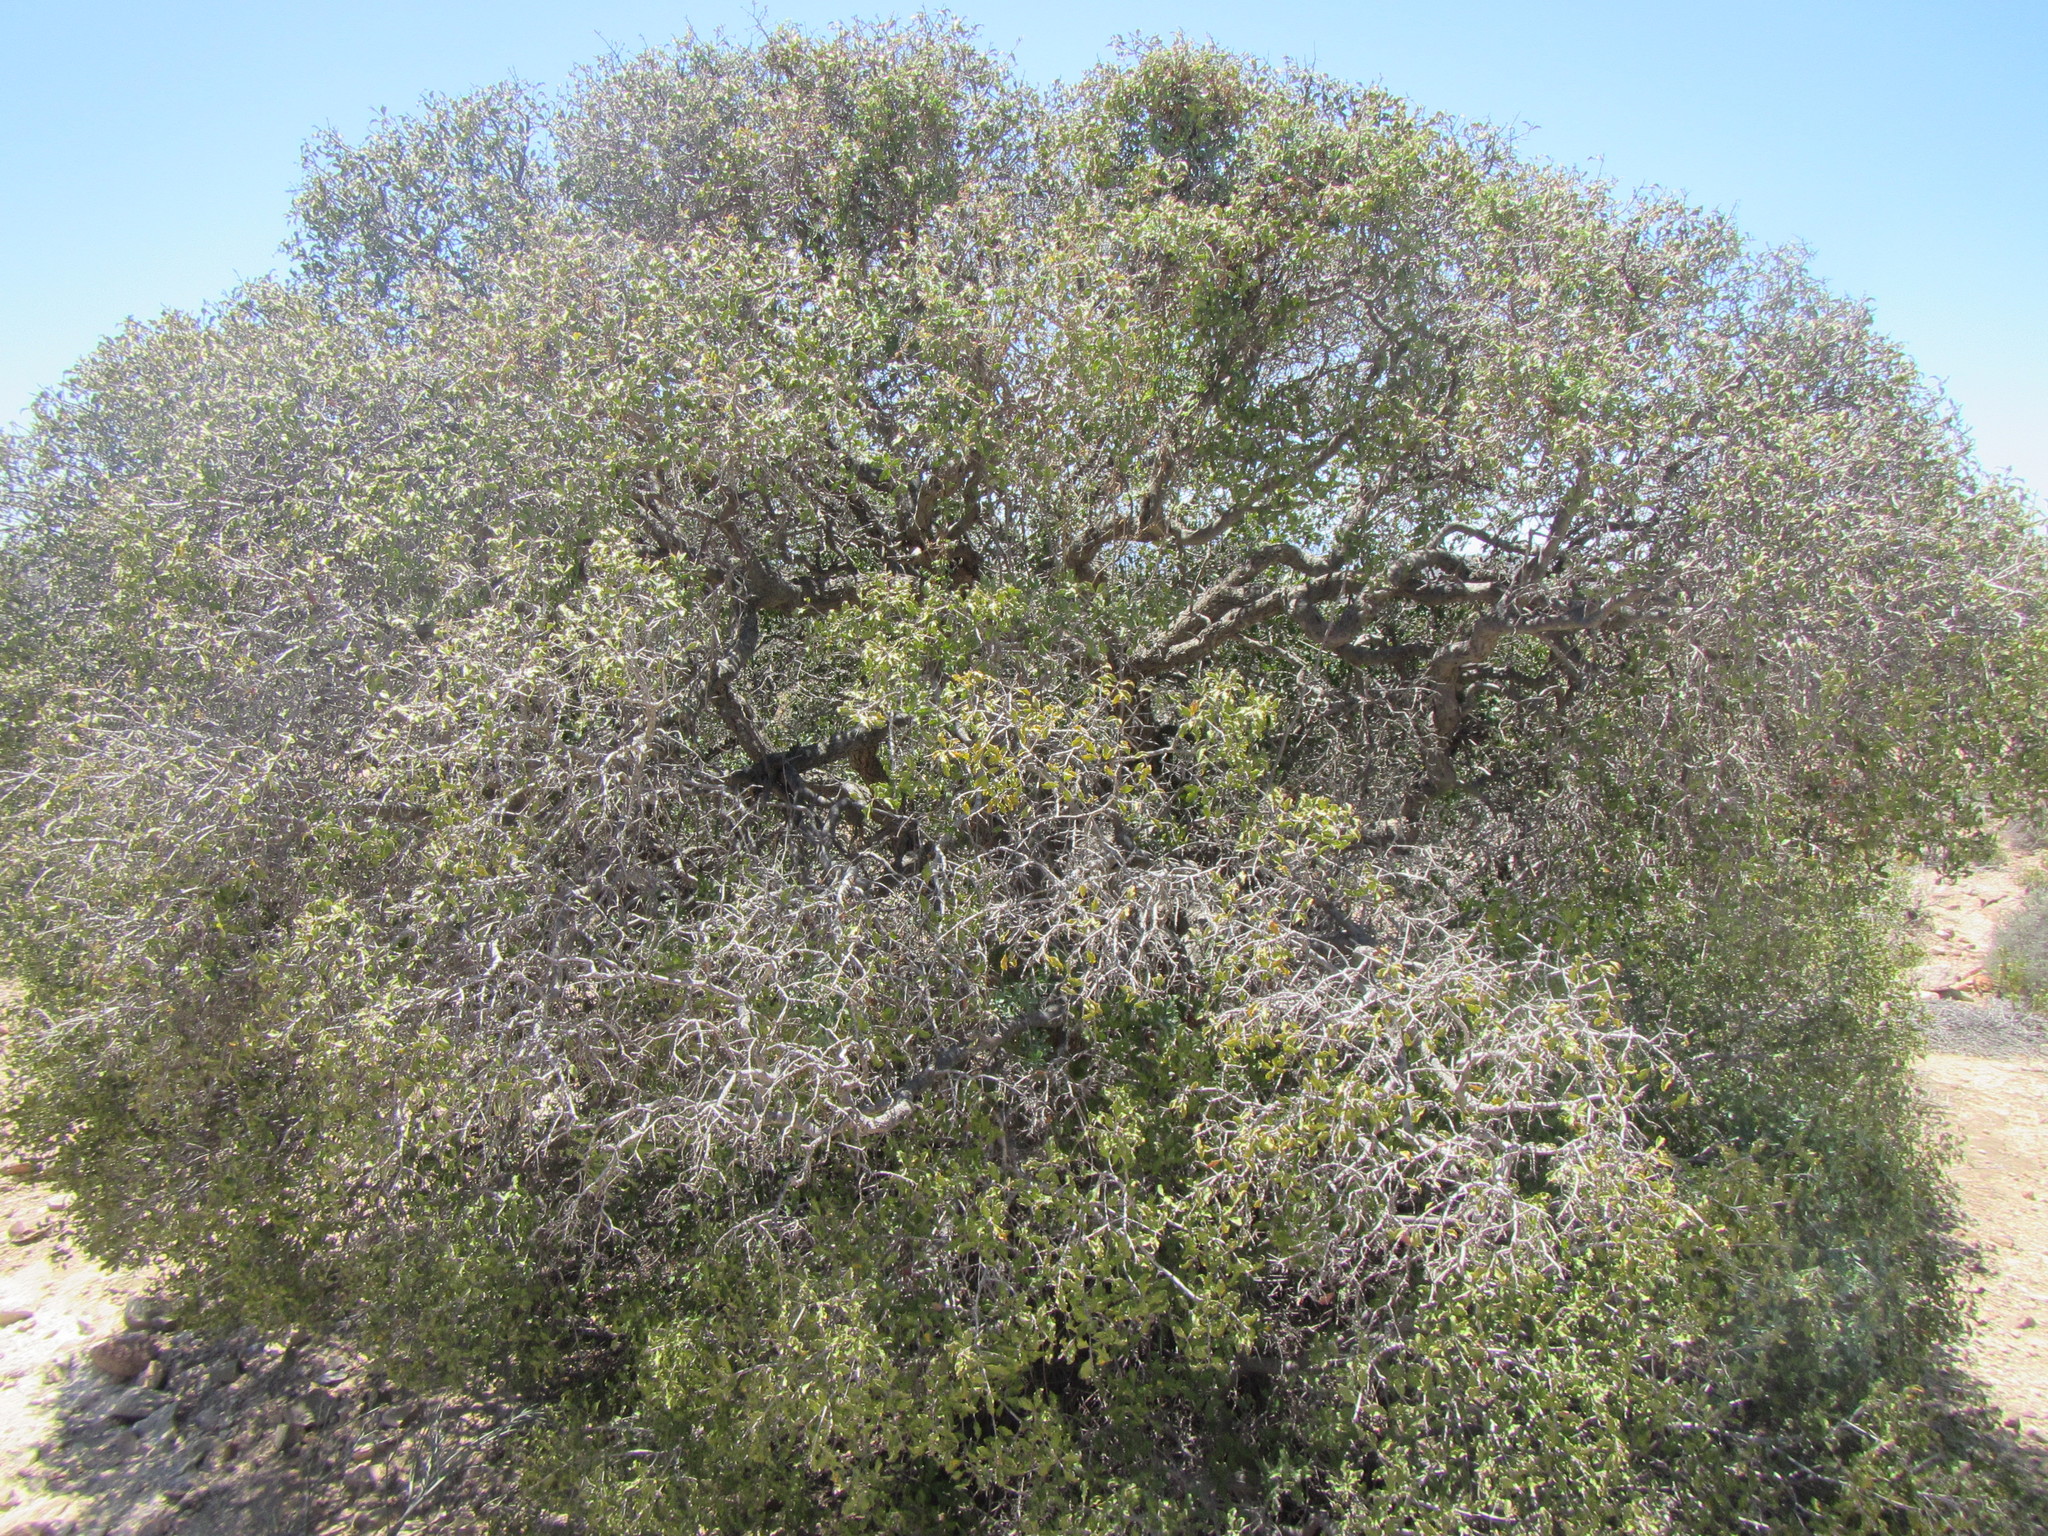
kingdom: Plantae
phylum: Tracheophyta
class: Magnoliopsida
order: Ericales
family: Ebenaceae
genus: Euclea
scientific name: Euclea undulata
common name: Small-leaved guarri
